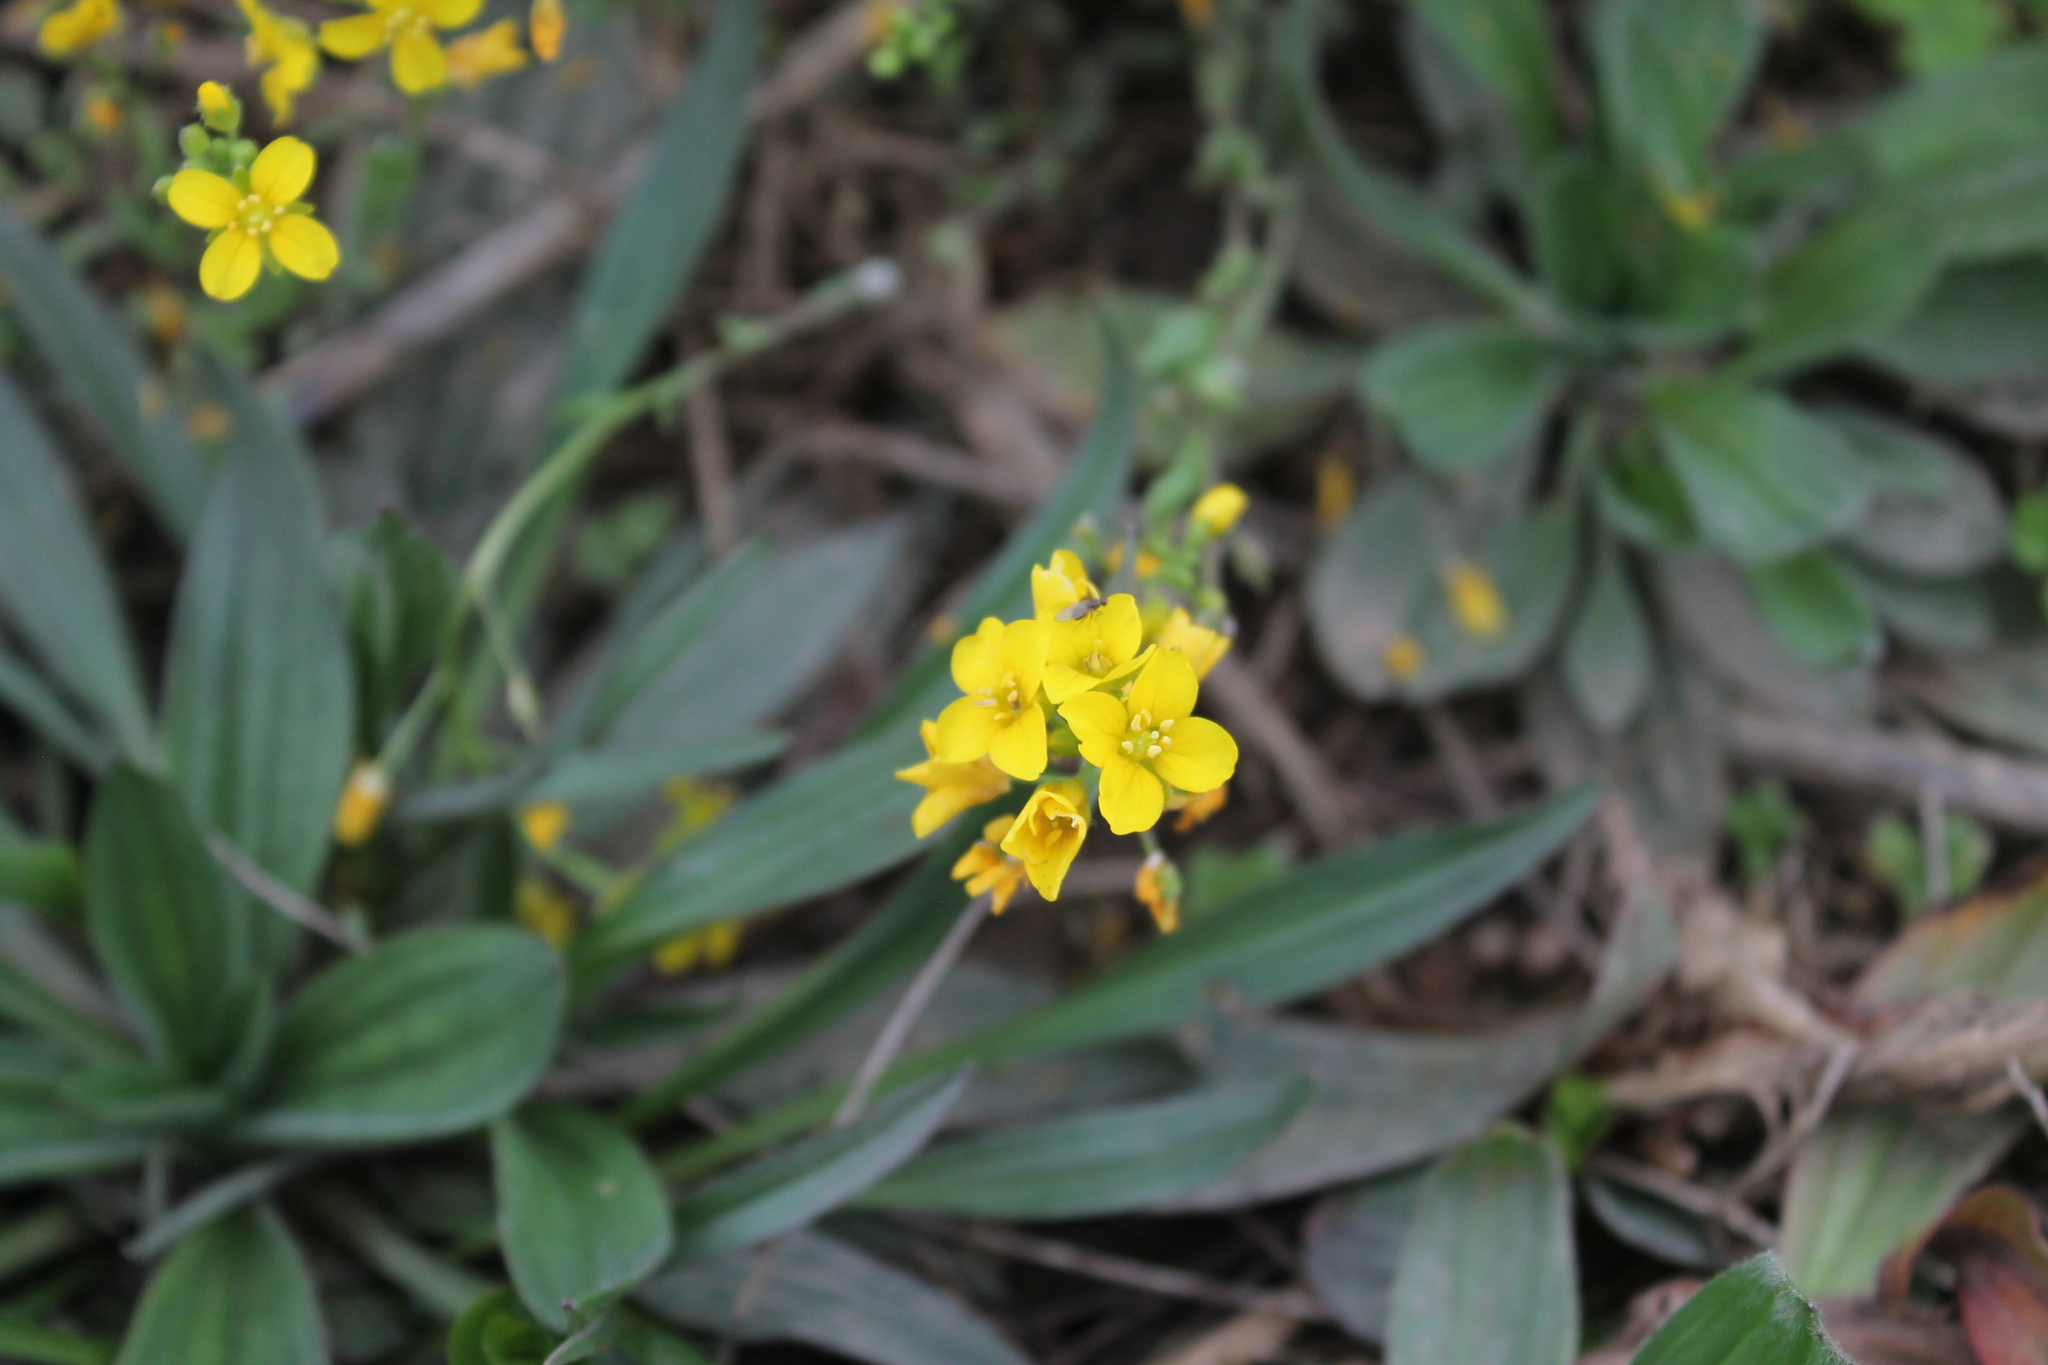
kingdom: Plantae
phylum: Tracheophyta
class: Magnoliopsida
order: Brassicales
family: Brassicaceae
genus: Paysonia
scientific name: Paysonia lescurii
